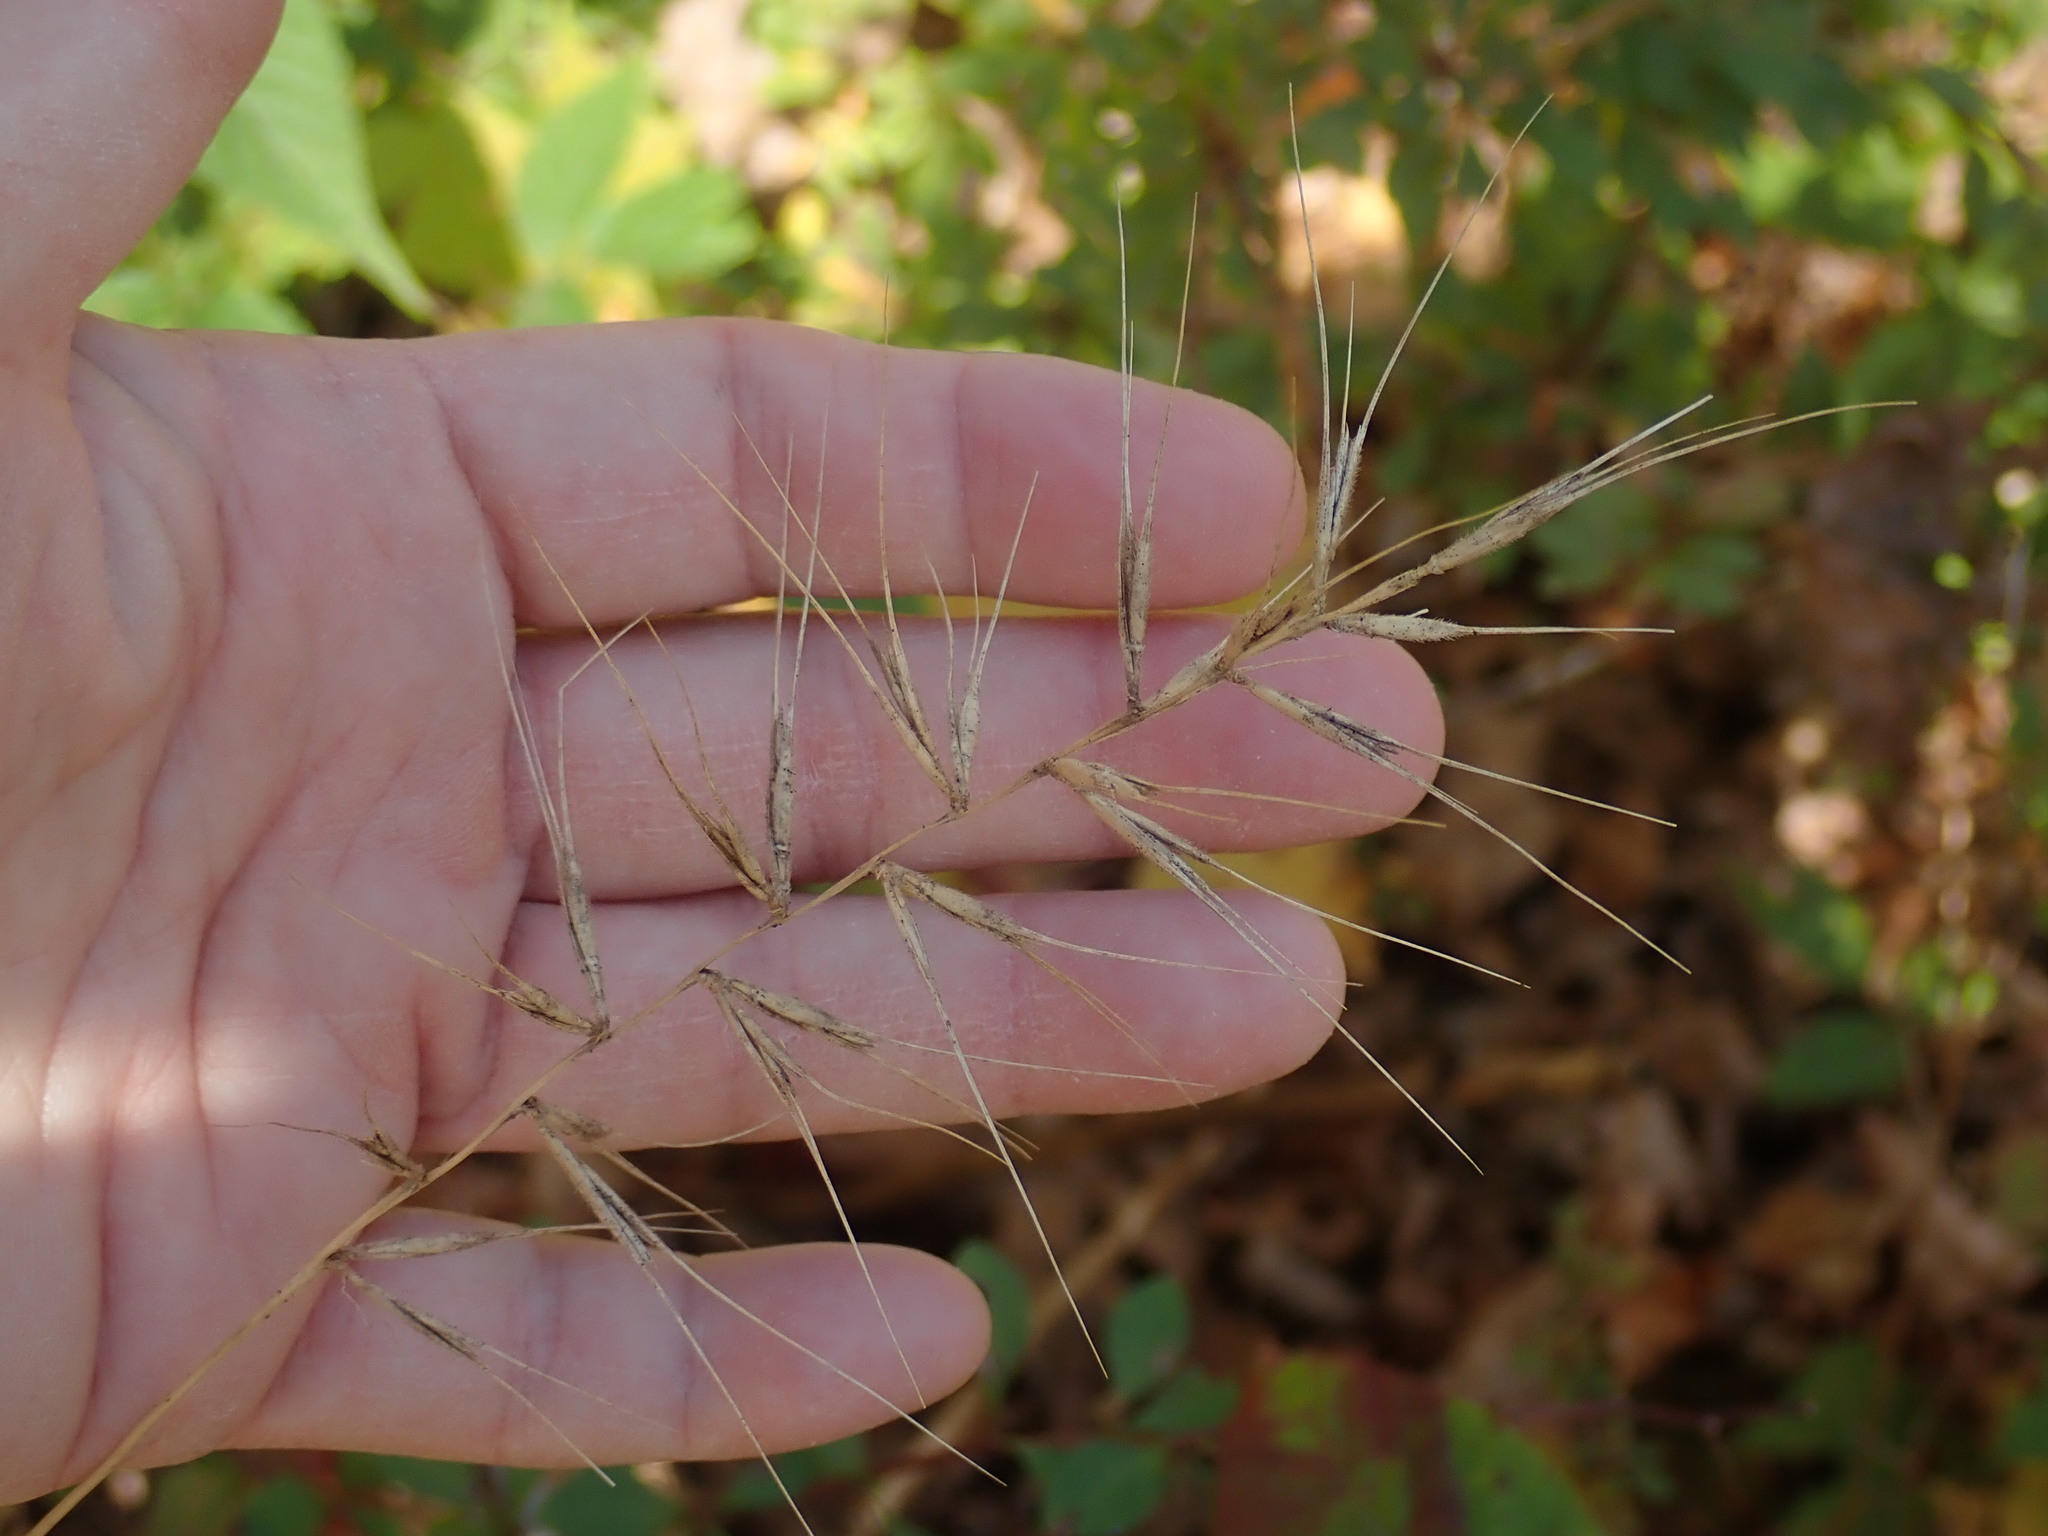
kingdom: Plantae
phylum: Tracheophyta
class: Liliopsida
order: Poales
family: Poaceae
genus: Elymus
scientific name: Elymus hystrix
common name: Bottlebrush grass
